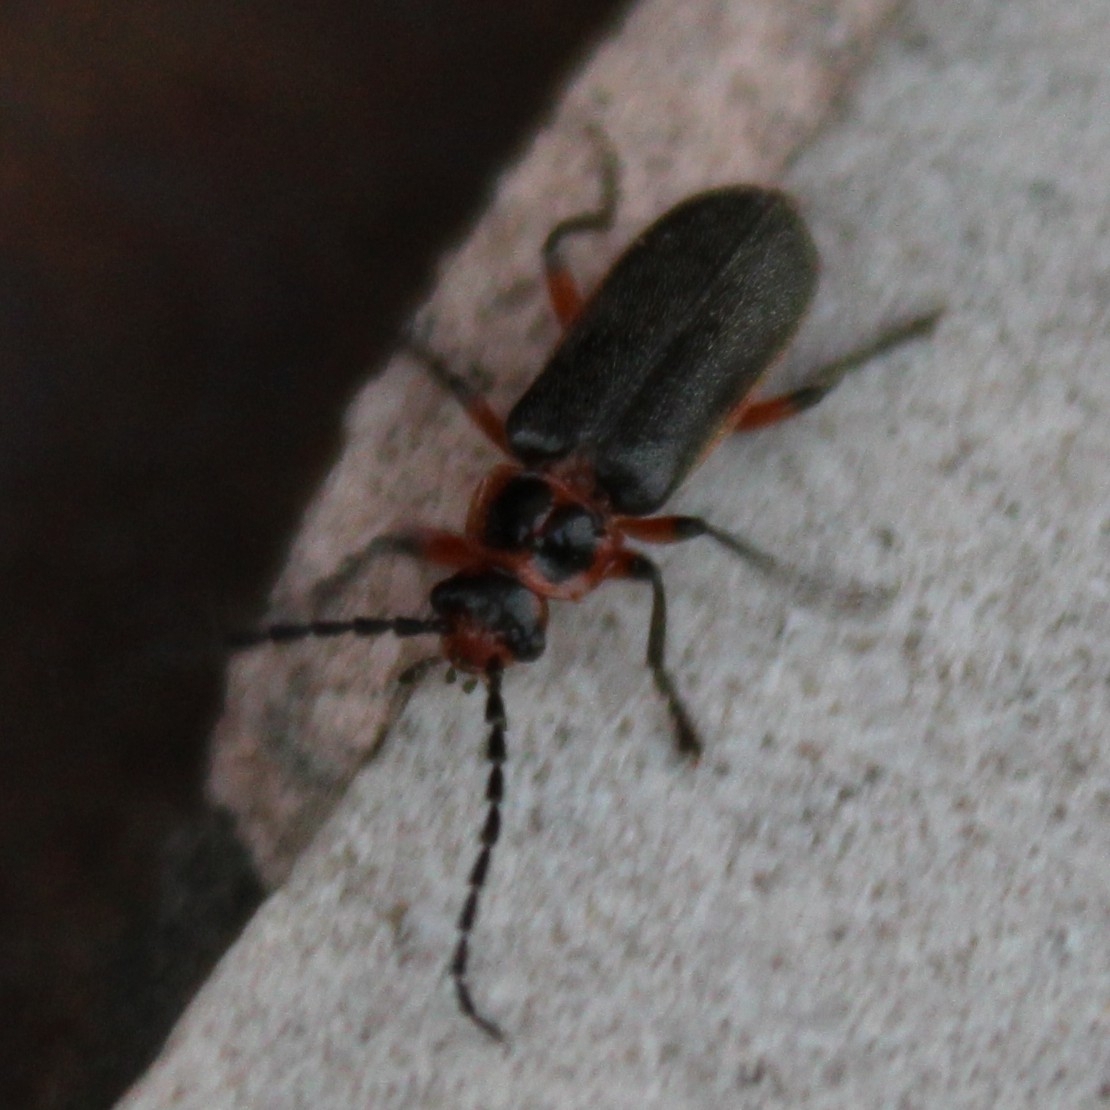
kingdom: Animalia
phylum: Arthropoda
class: Insecta
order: Coleoptera
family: Cantharidae
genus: Atalantycha
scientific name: Atalantycha bilineata
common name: Two-lined leatherwing
